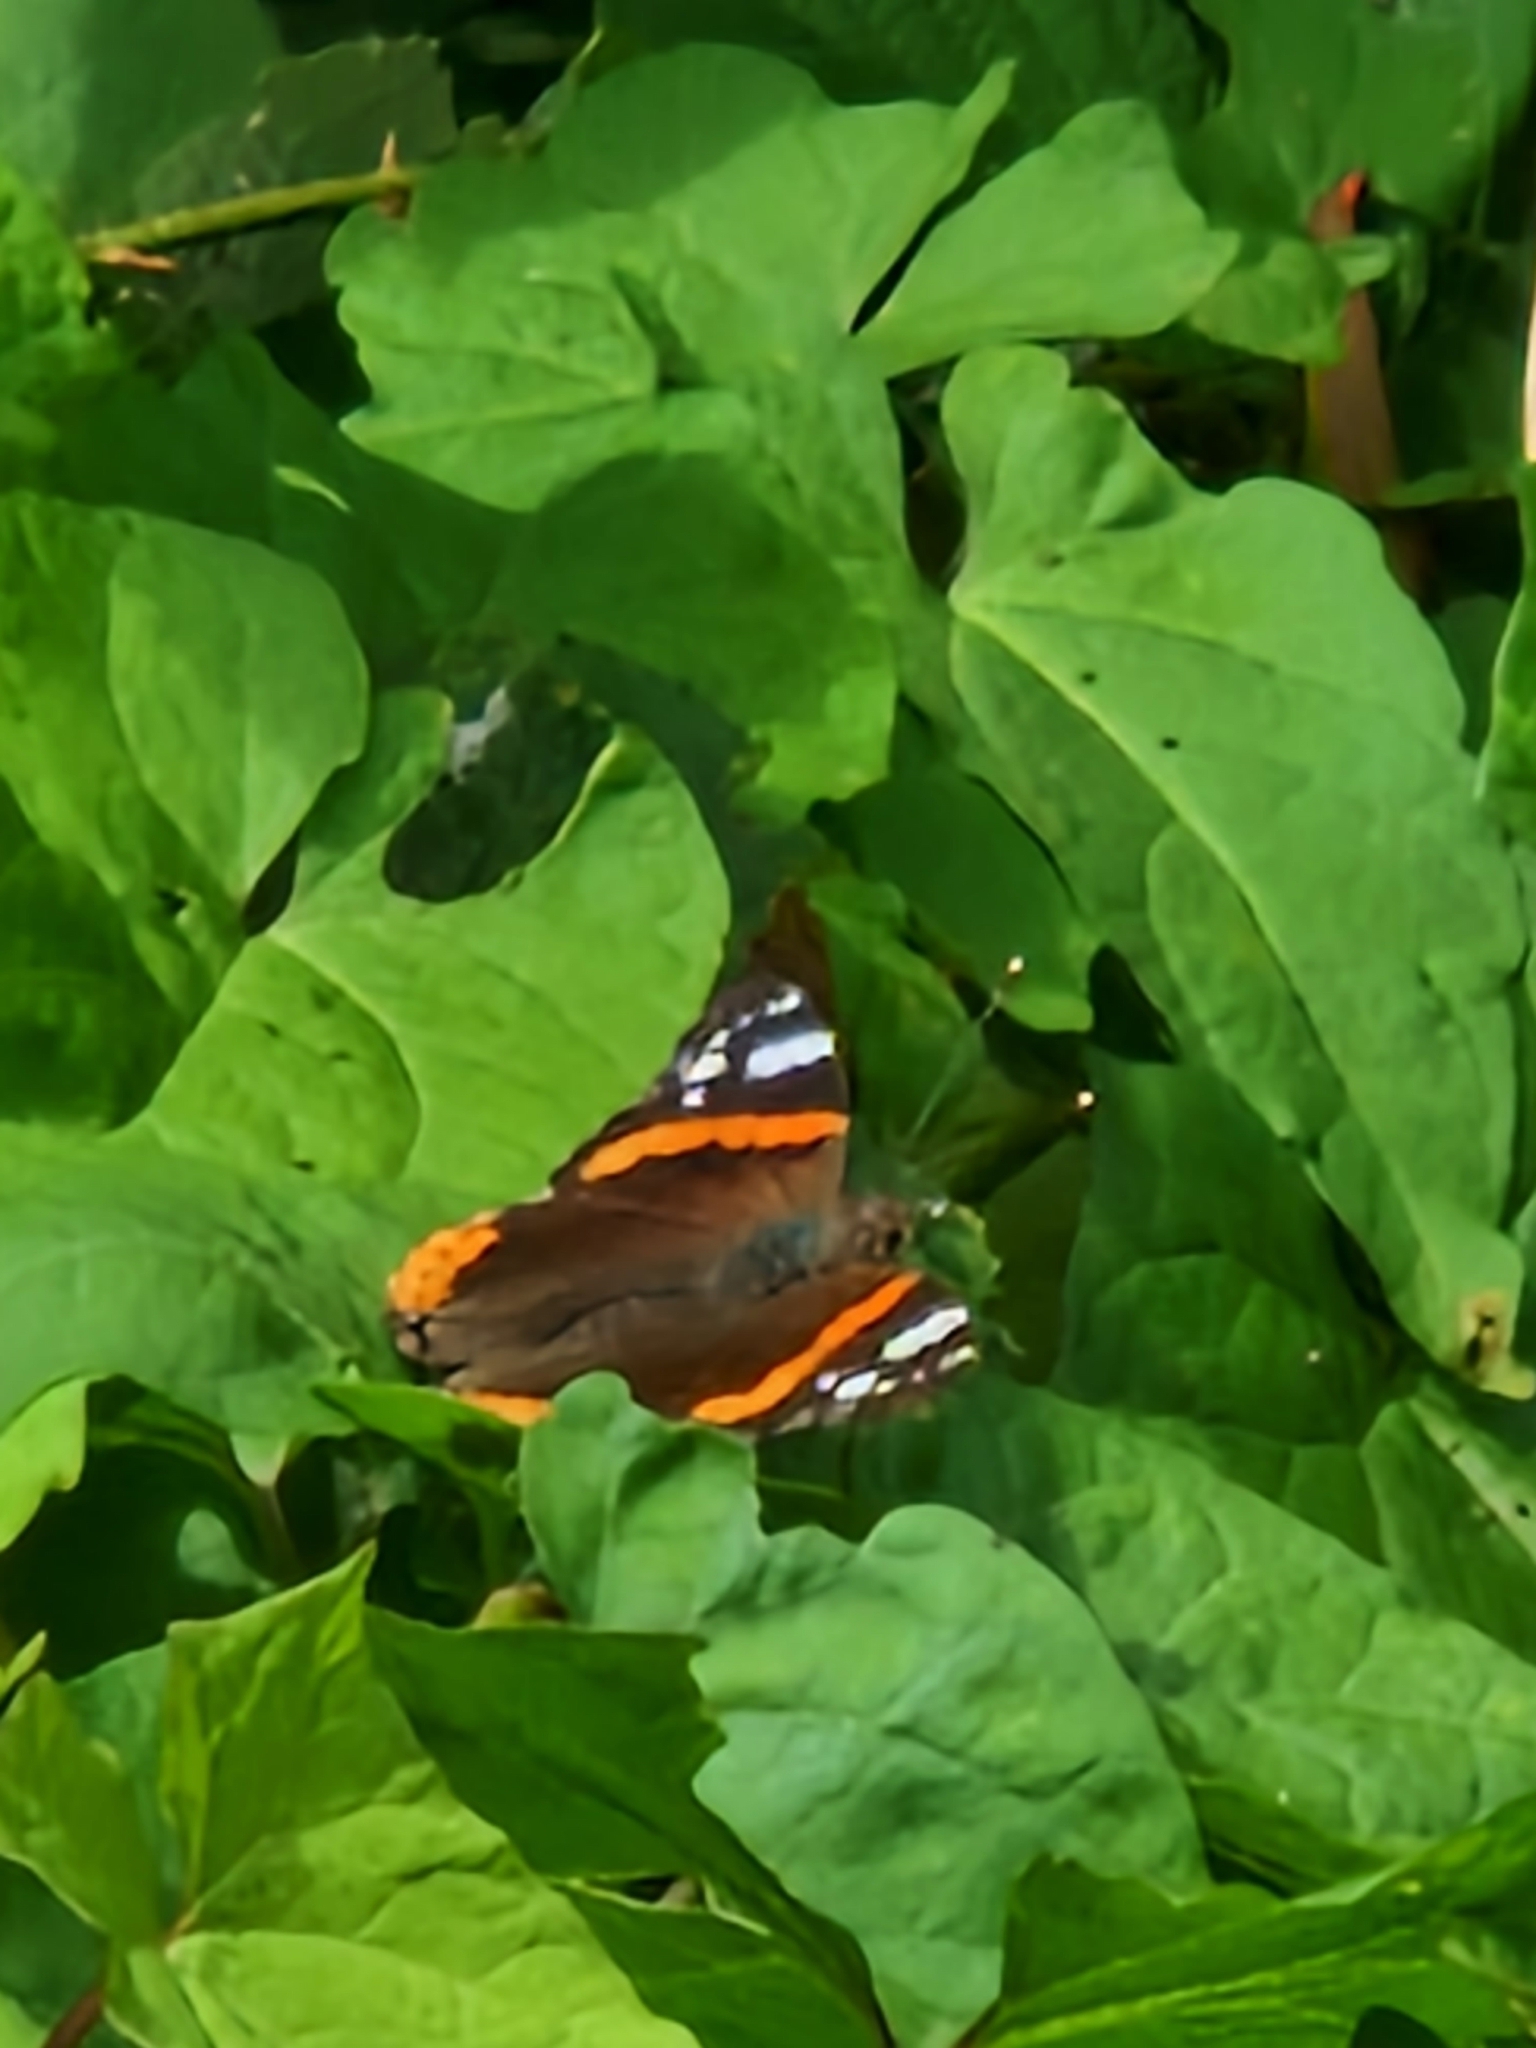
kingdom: Animalia
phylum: Arthropoda
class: Insecta
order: Lepidoptera
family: Nymphalidae
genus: Vanessa
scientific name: Vanessa atalanta
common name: Red admiral
